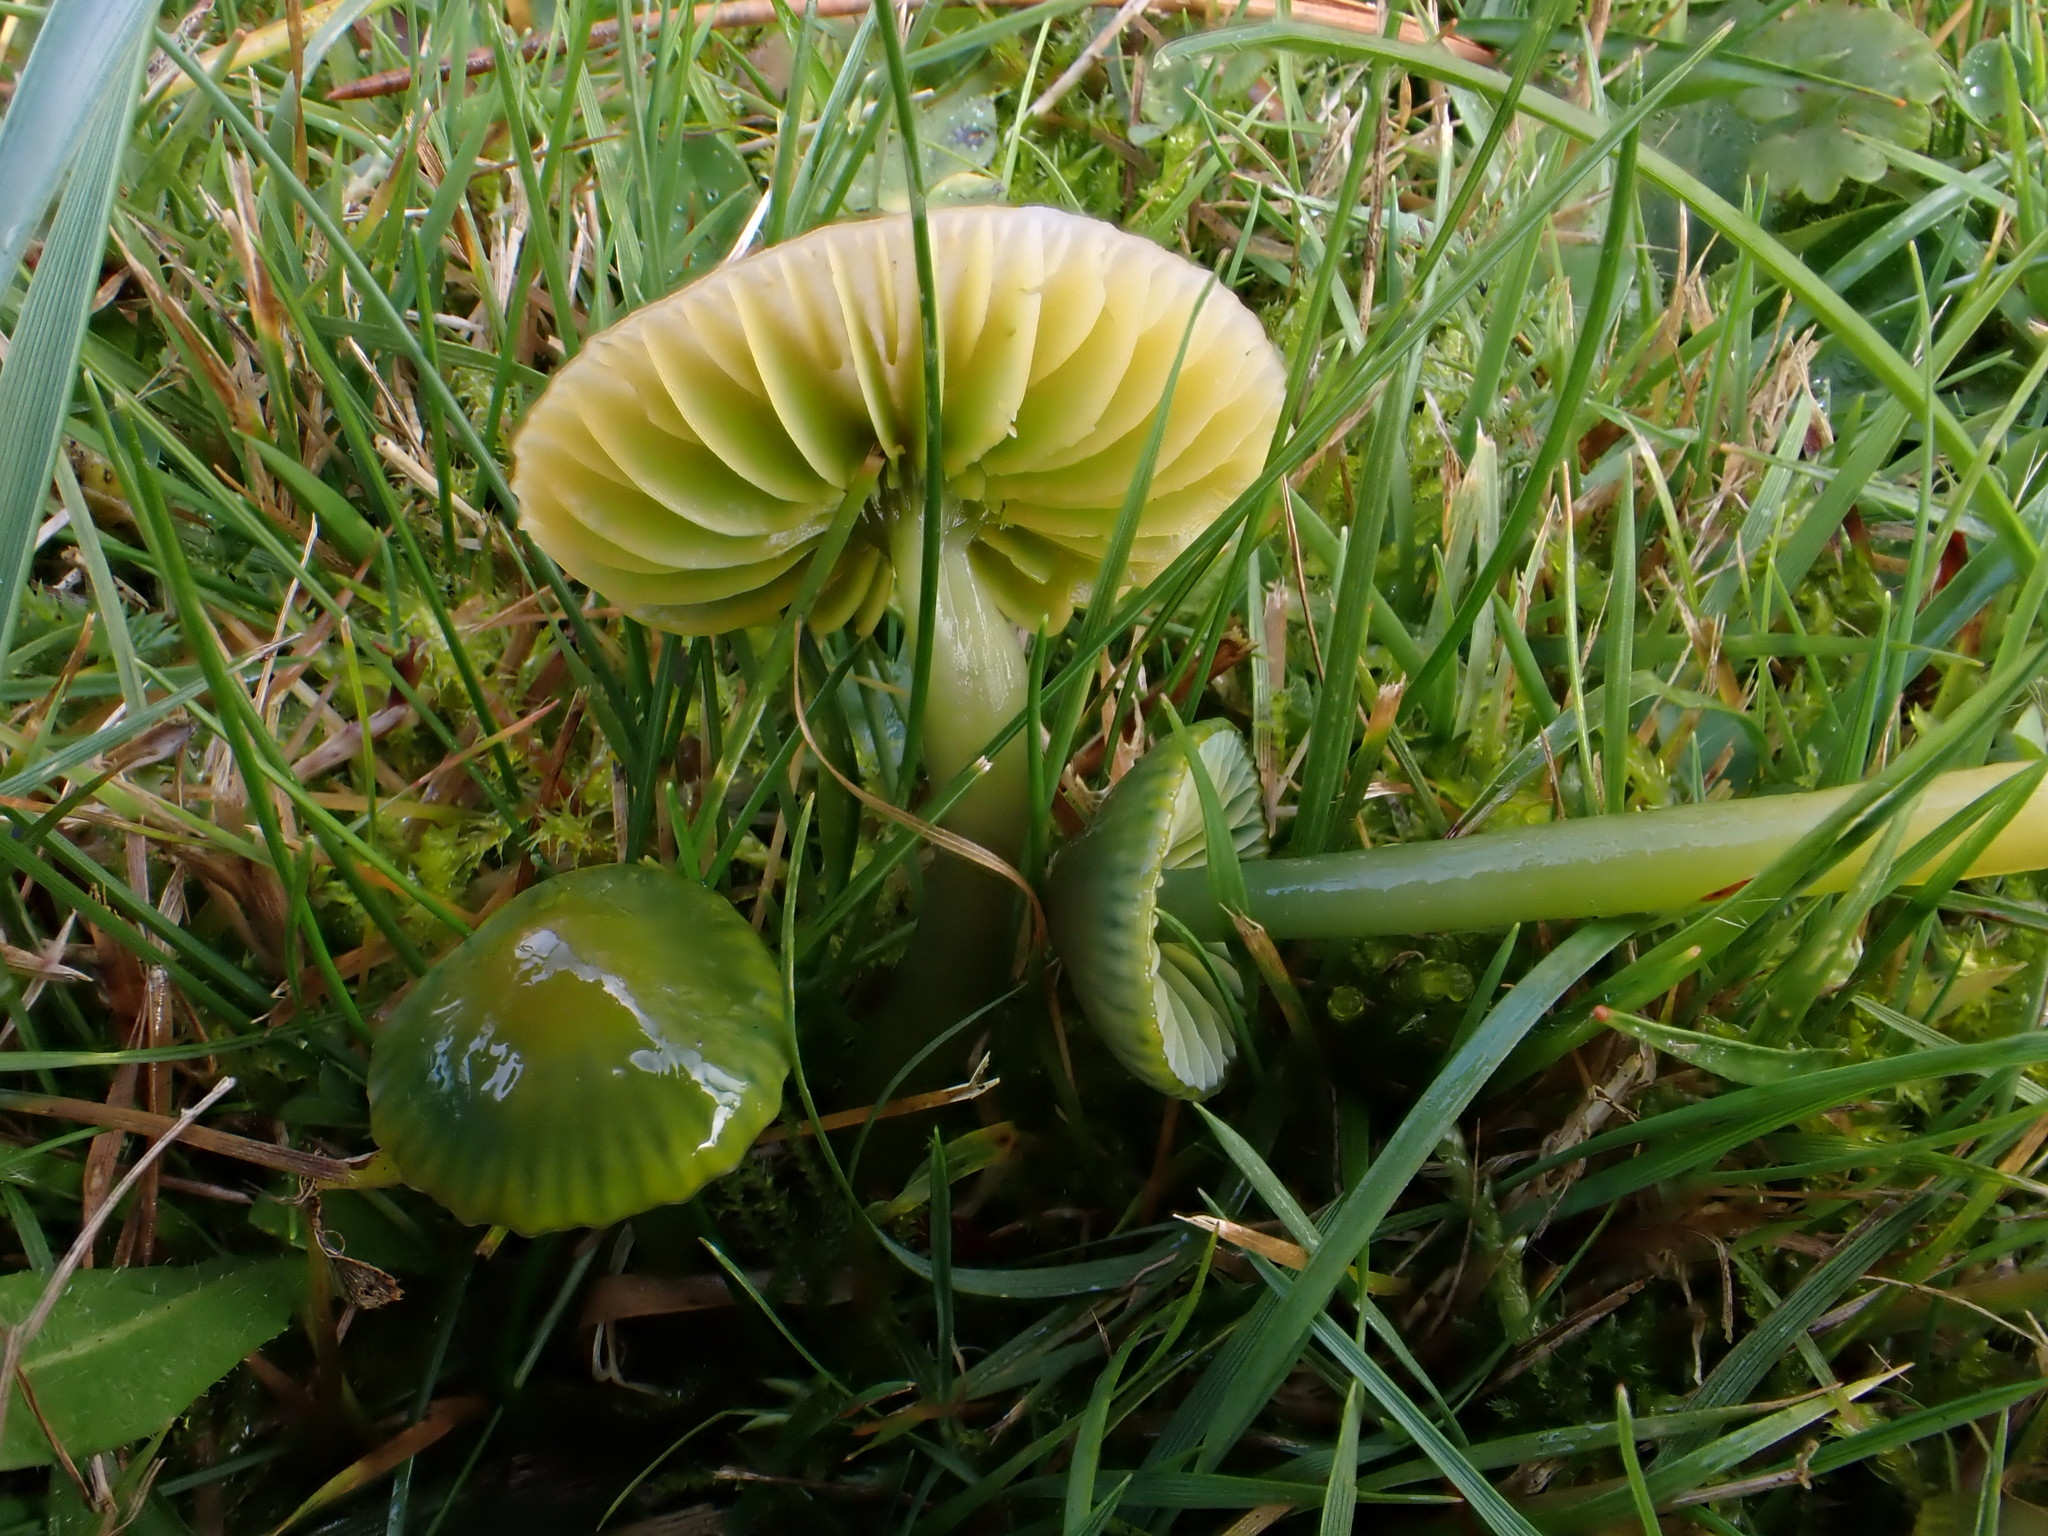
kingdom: Fungi
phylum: Basidiomycota
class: Agaricomycetes
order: Agaricales
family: Hygrophoraceae
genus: Gliophorus
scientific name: Gliophorus psittacinus
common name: Parrot wax-cap
